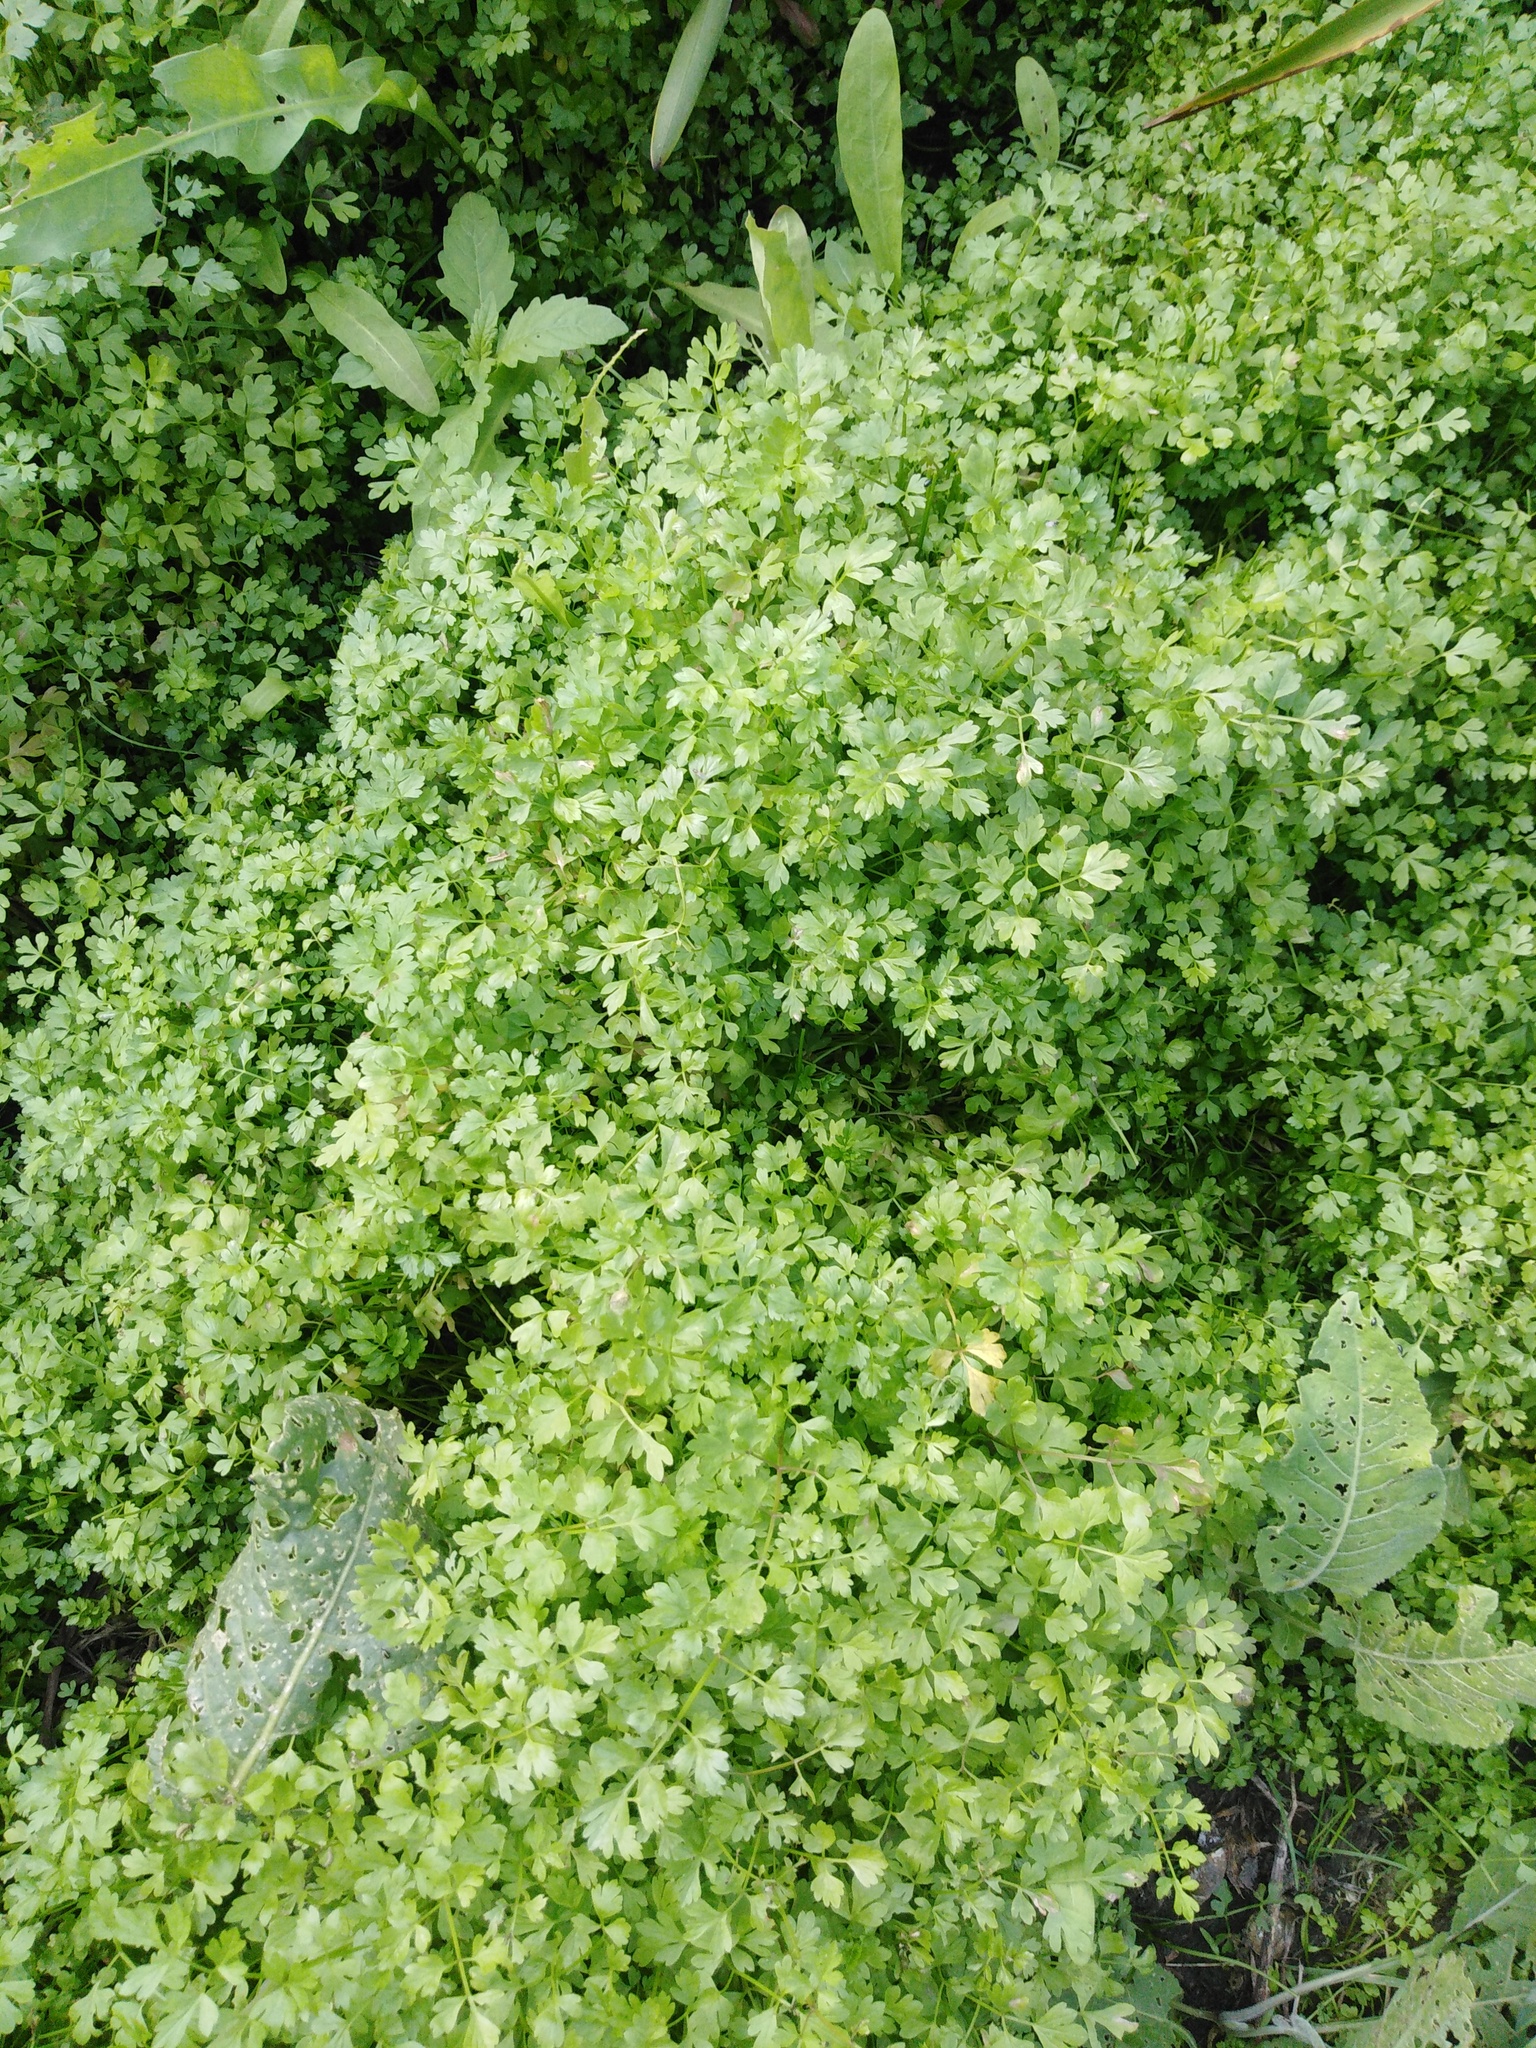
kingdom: Plantae
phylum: Tracheophyta
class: Magnoliopsida
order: Apiales
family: Apiaceae
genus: Oenanthe
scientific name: Oenanthe aquatica
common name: Fine-leaved water-dropwort
